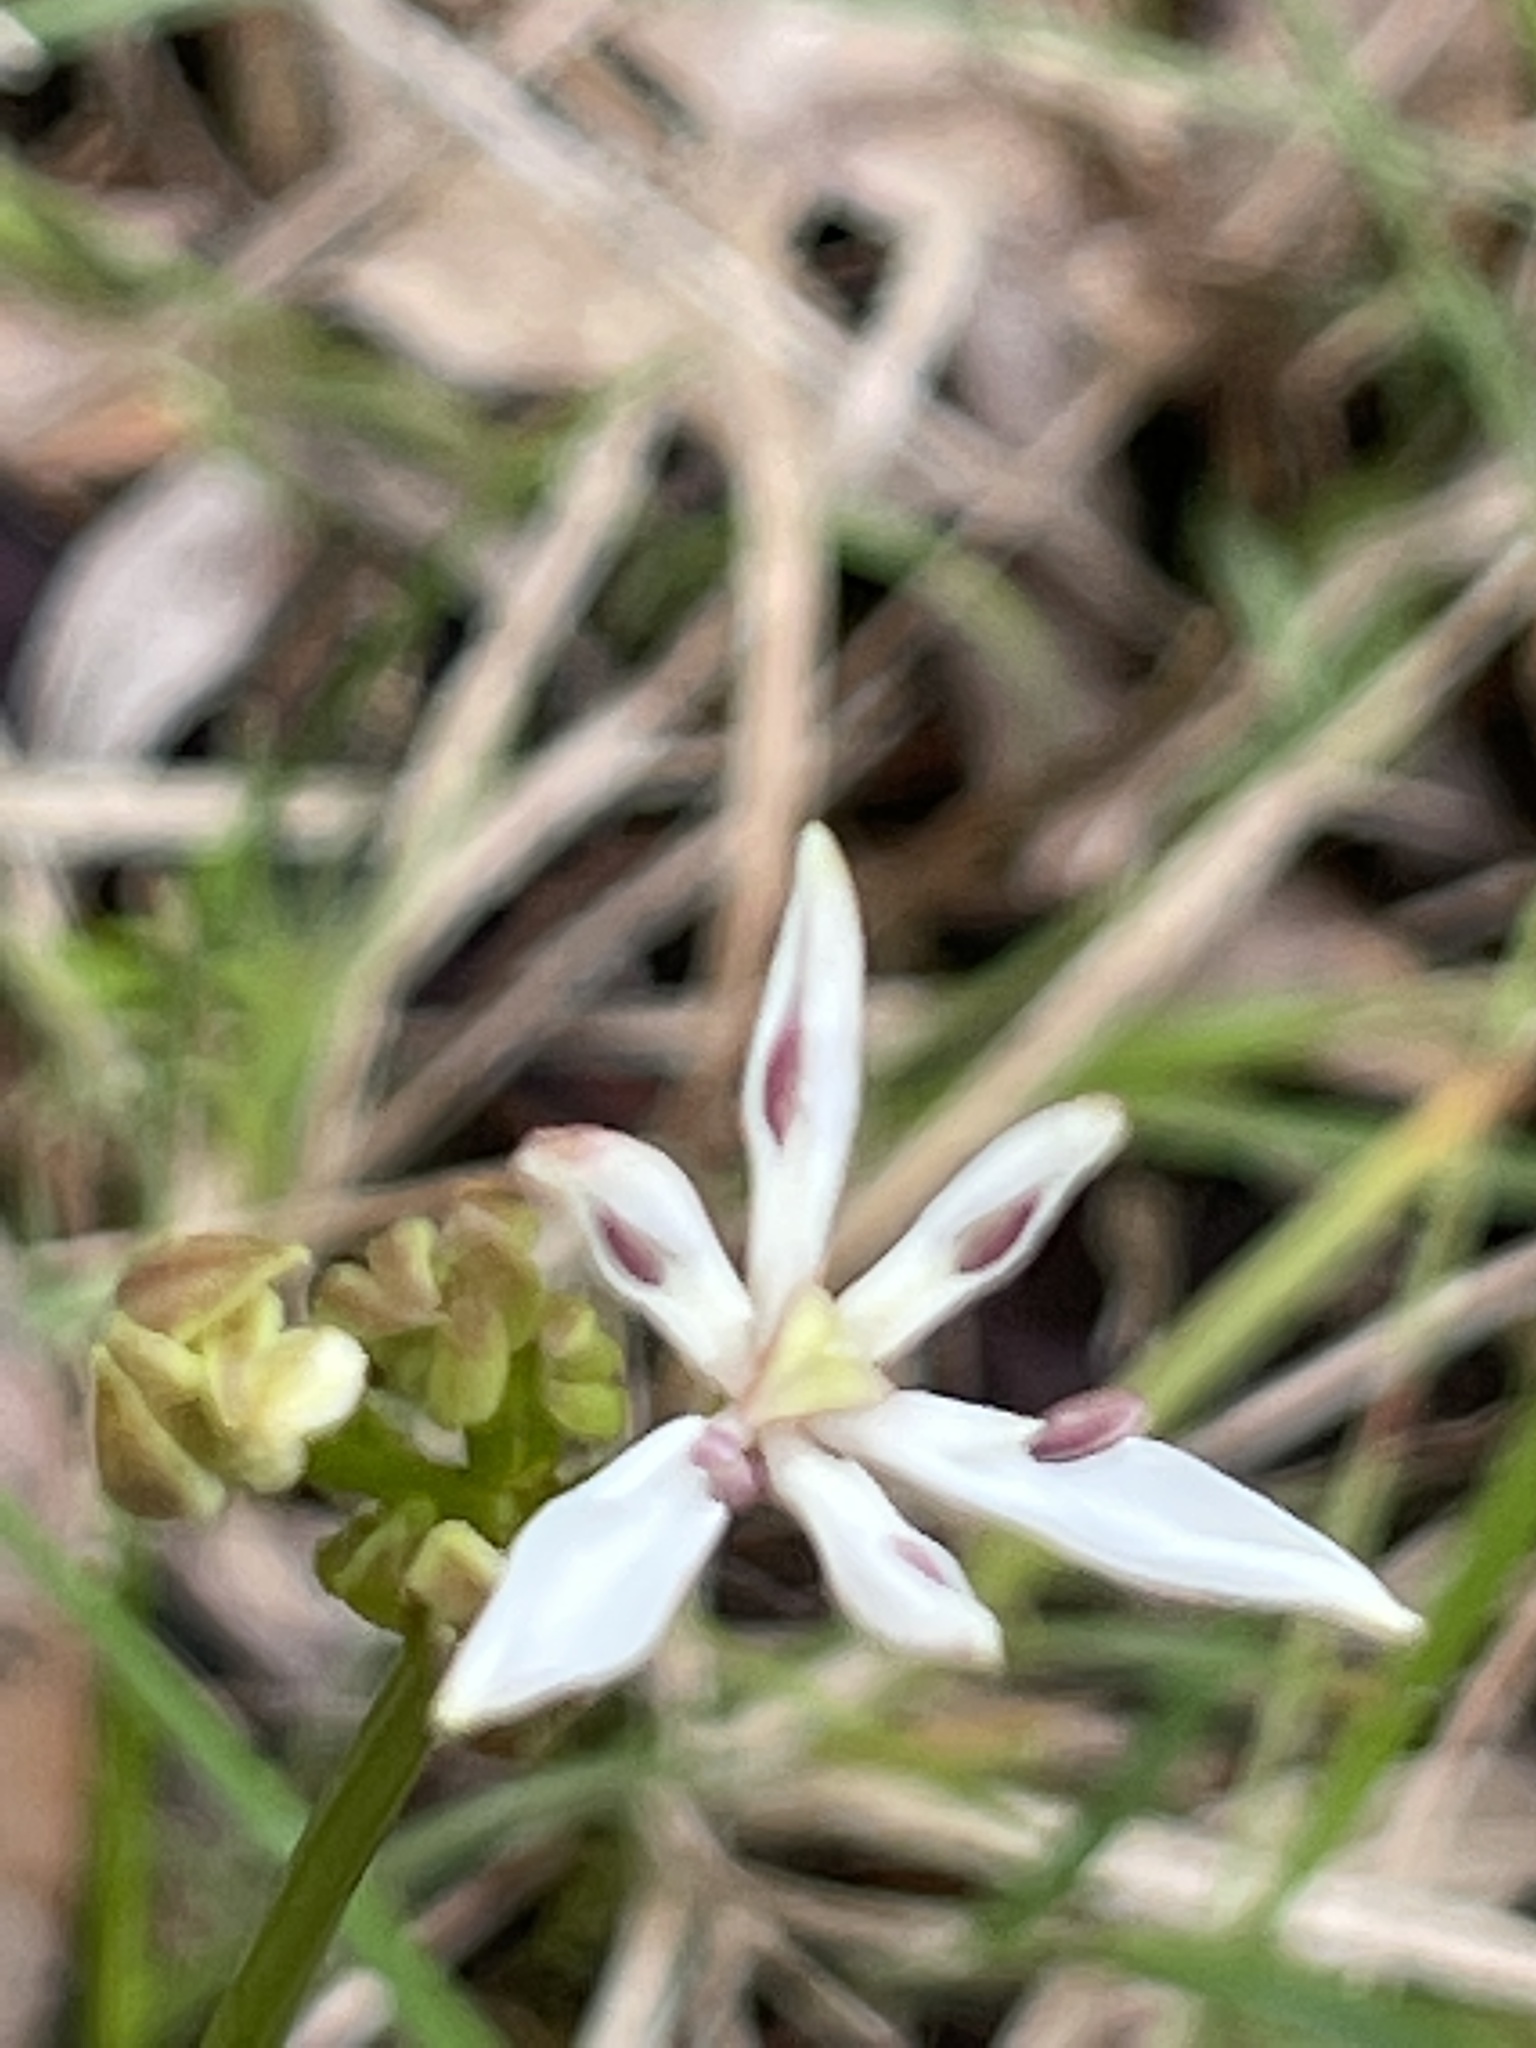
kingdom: Plantae
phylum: Tracheophyta
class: Liliopsida
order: Liliales
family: Colchicaceae
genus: Burchardia
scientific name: Burchardia umbellata
